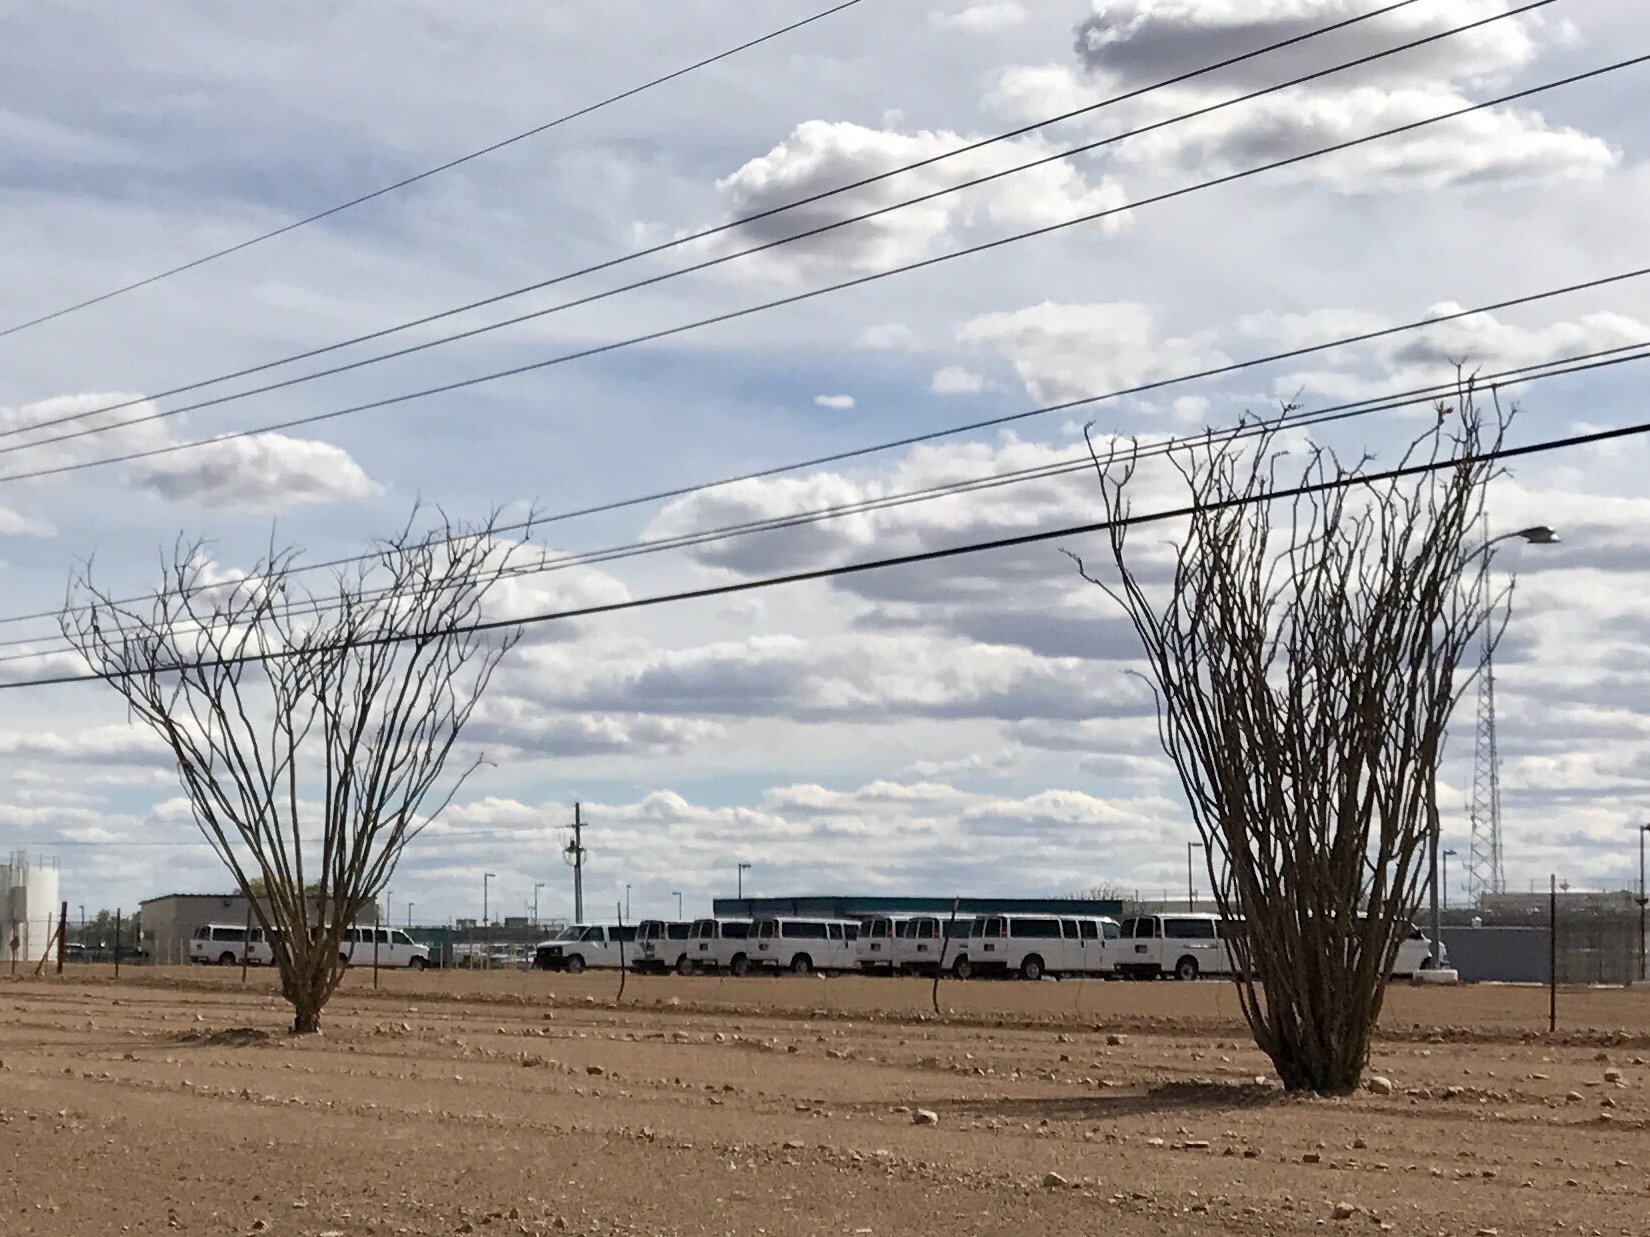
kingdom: Plantae
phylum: Tracheophyta
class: Magnoliopsida
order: Ericales
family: Fouquieriaceae
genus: Fouquieria
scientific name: Fouquieria splendens
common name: Vine-cactus
